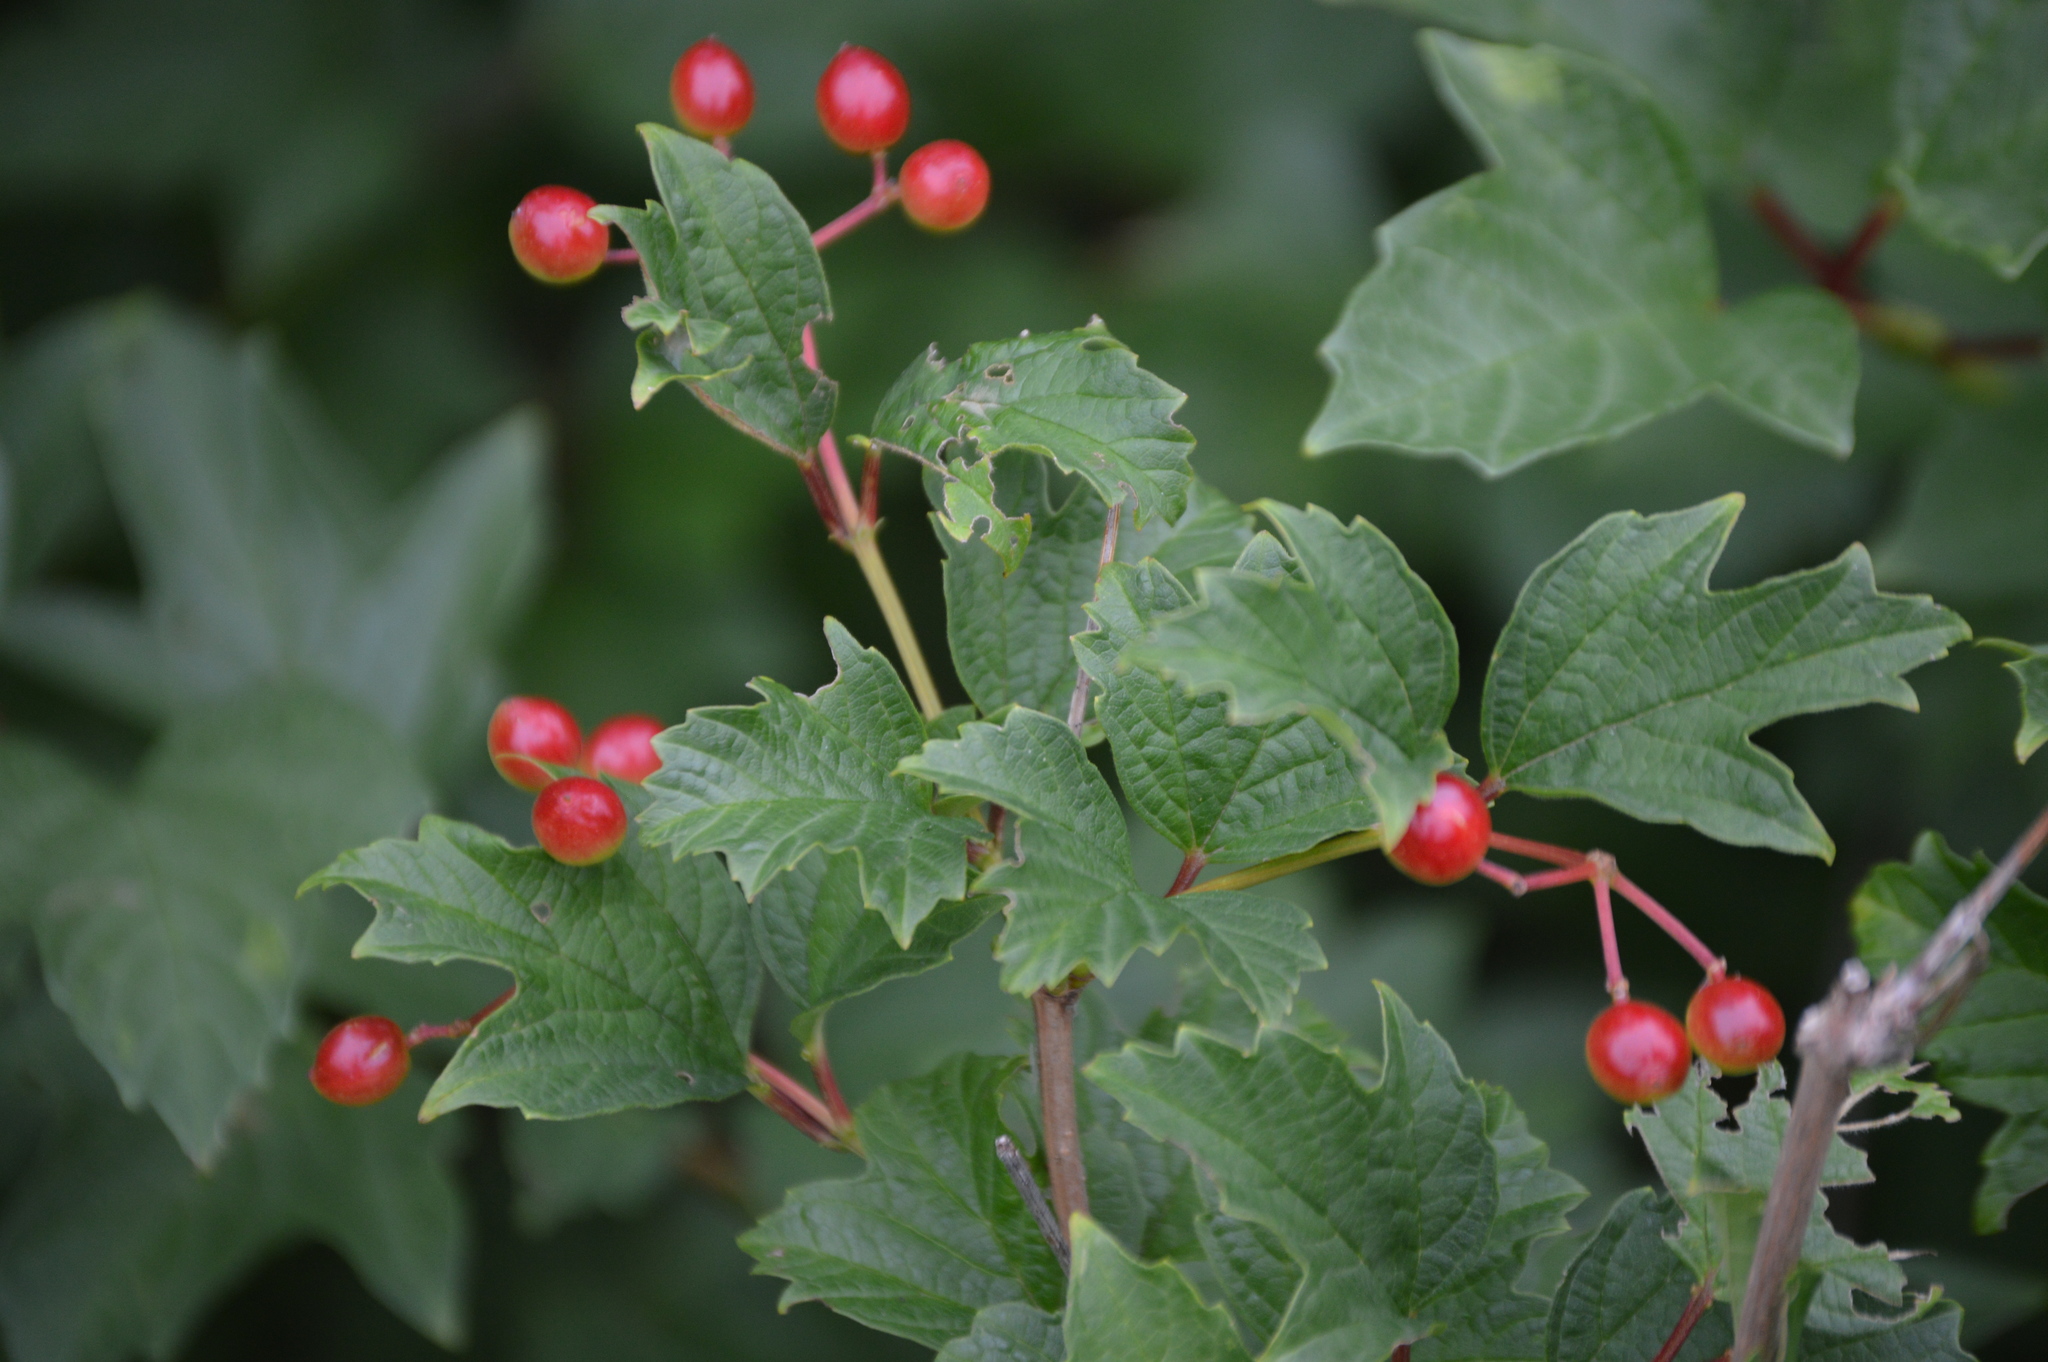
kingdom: Plantae
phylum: Tracheophyta
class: Magnoliopsida
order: Dipsacales
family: Viburnaceae
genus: Viburnum
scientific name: Viburnum opulus
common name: Guelder-rose
